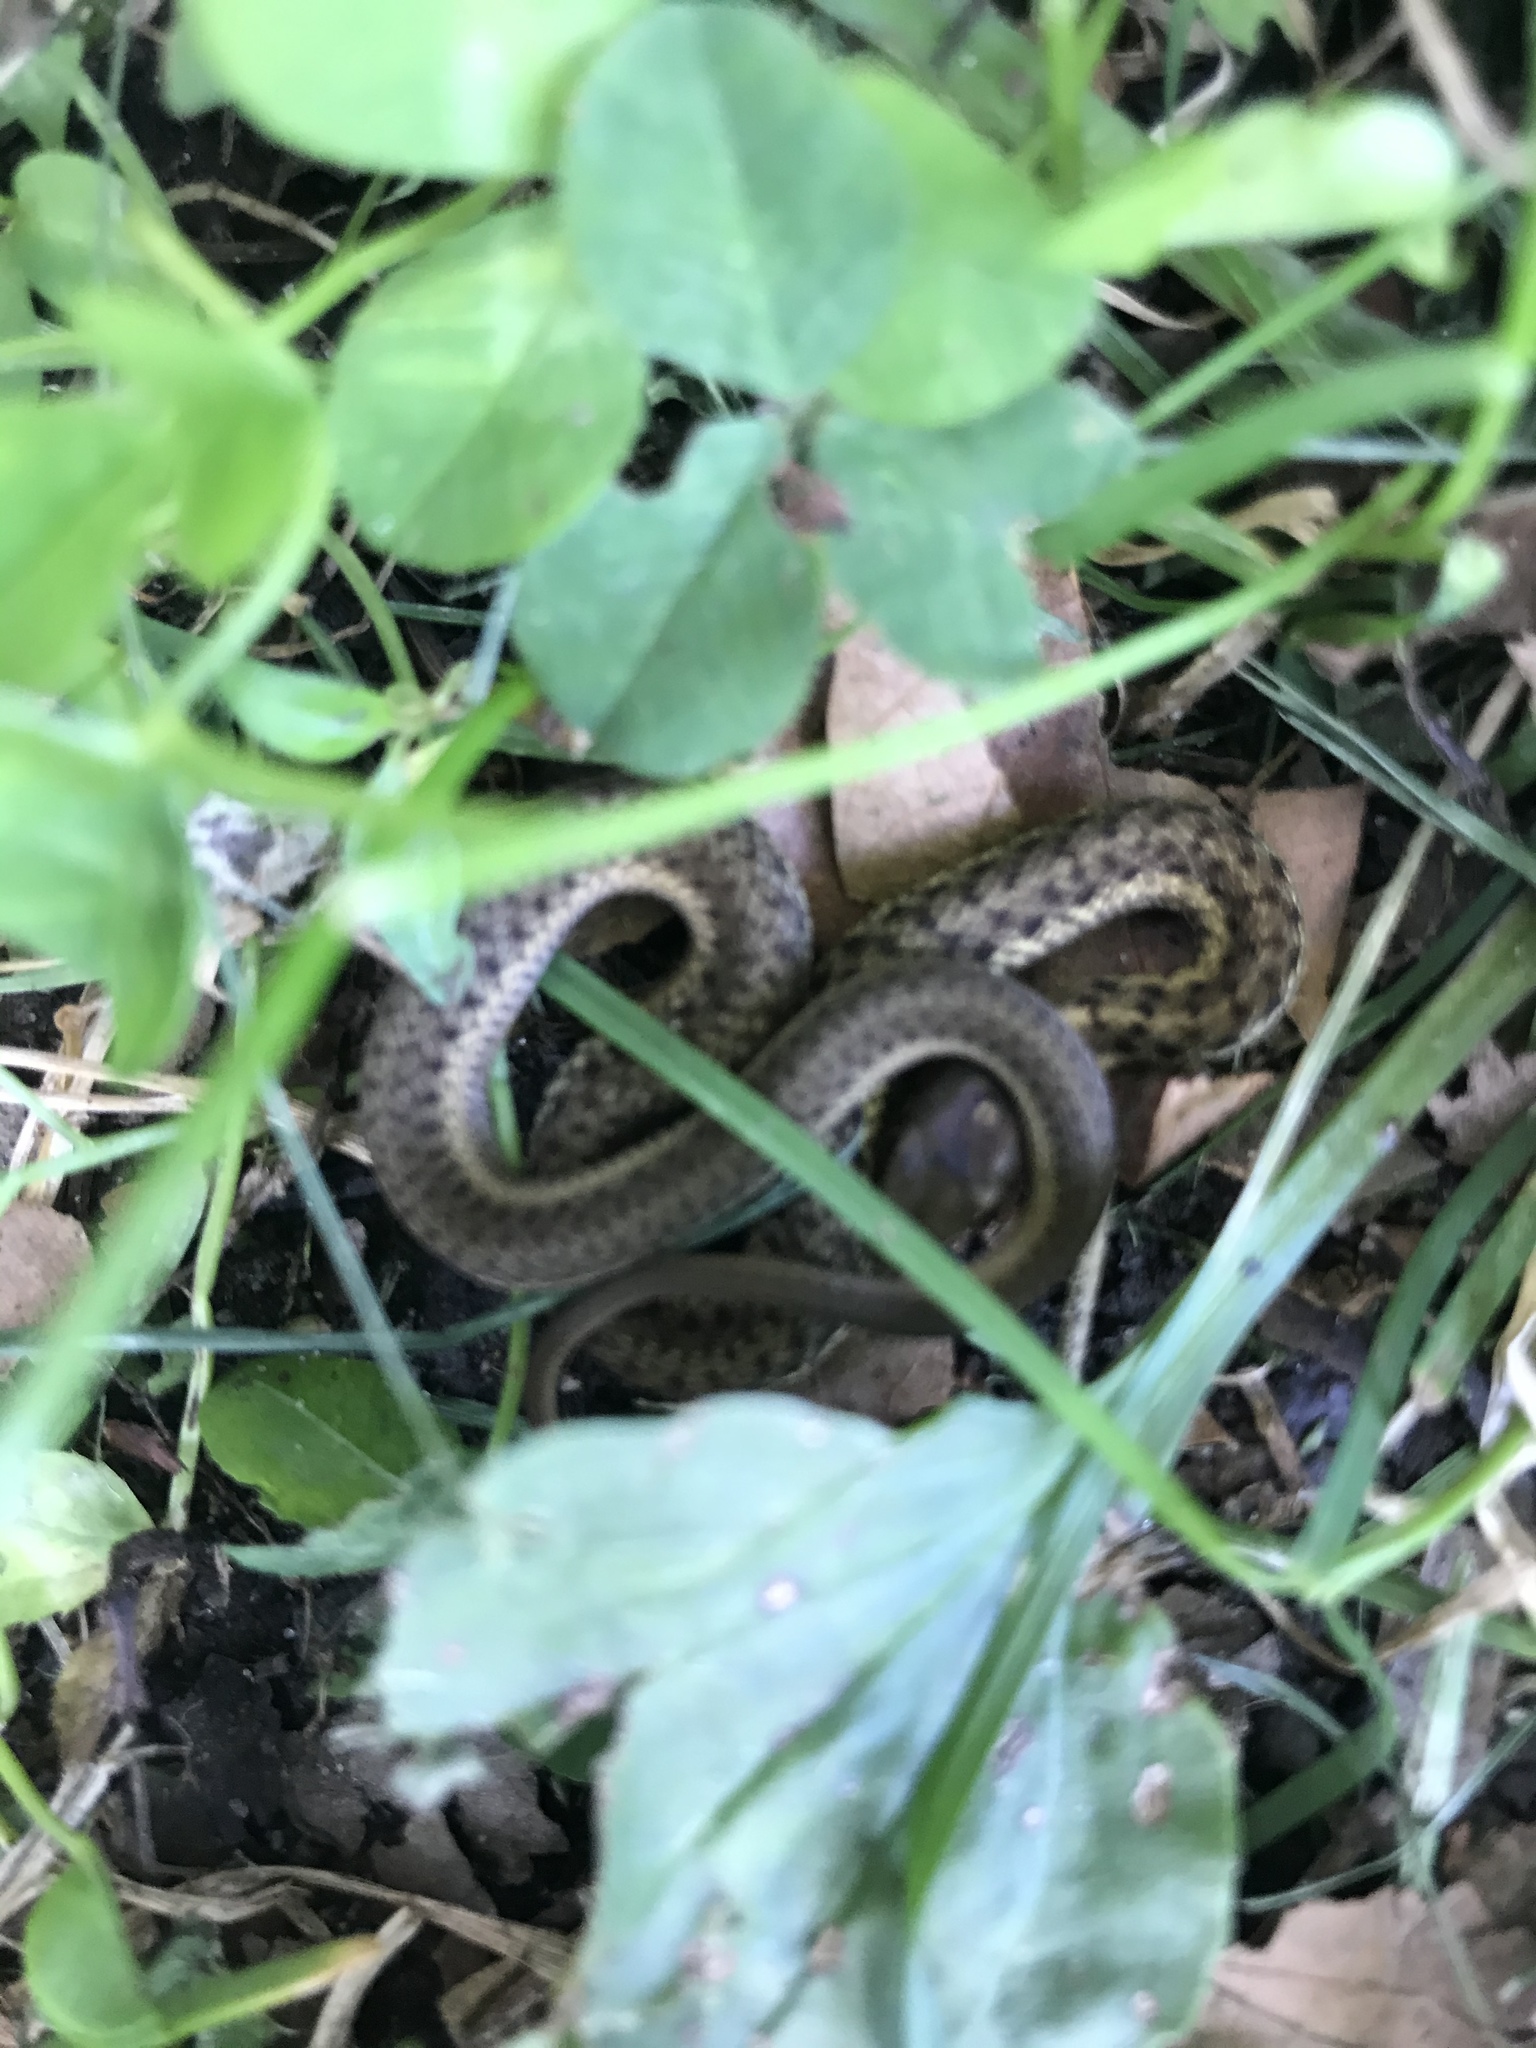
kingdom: Animalia
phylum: Chordata
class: Squamata
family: Colubridae
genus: Thamnophis
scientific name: Thamnophis sirtalis
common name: Common garter snake
